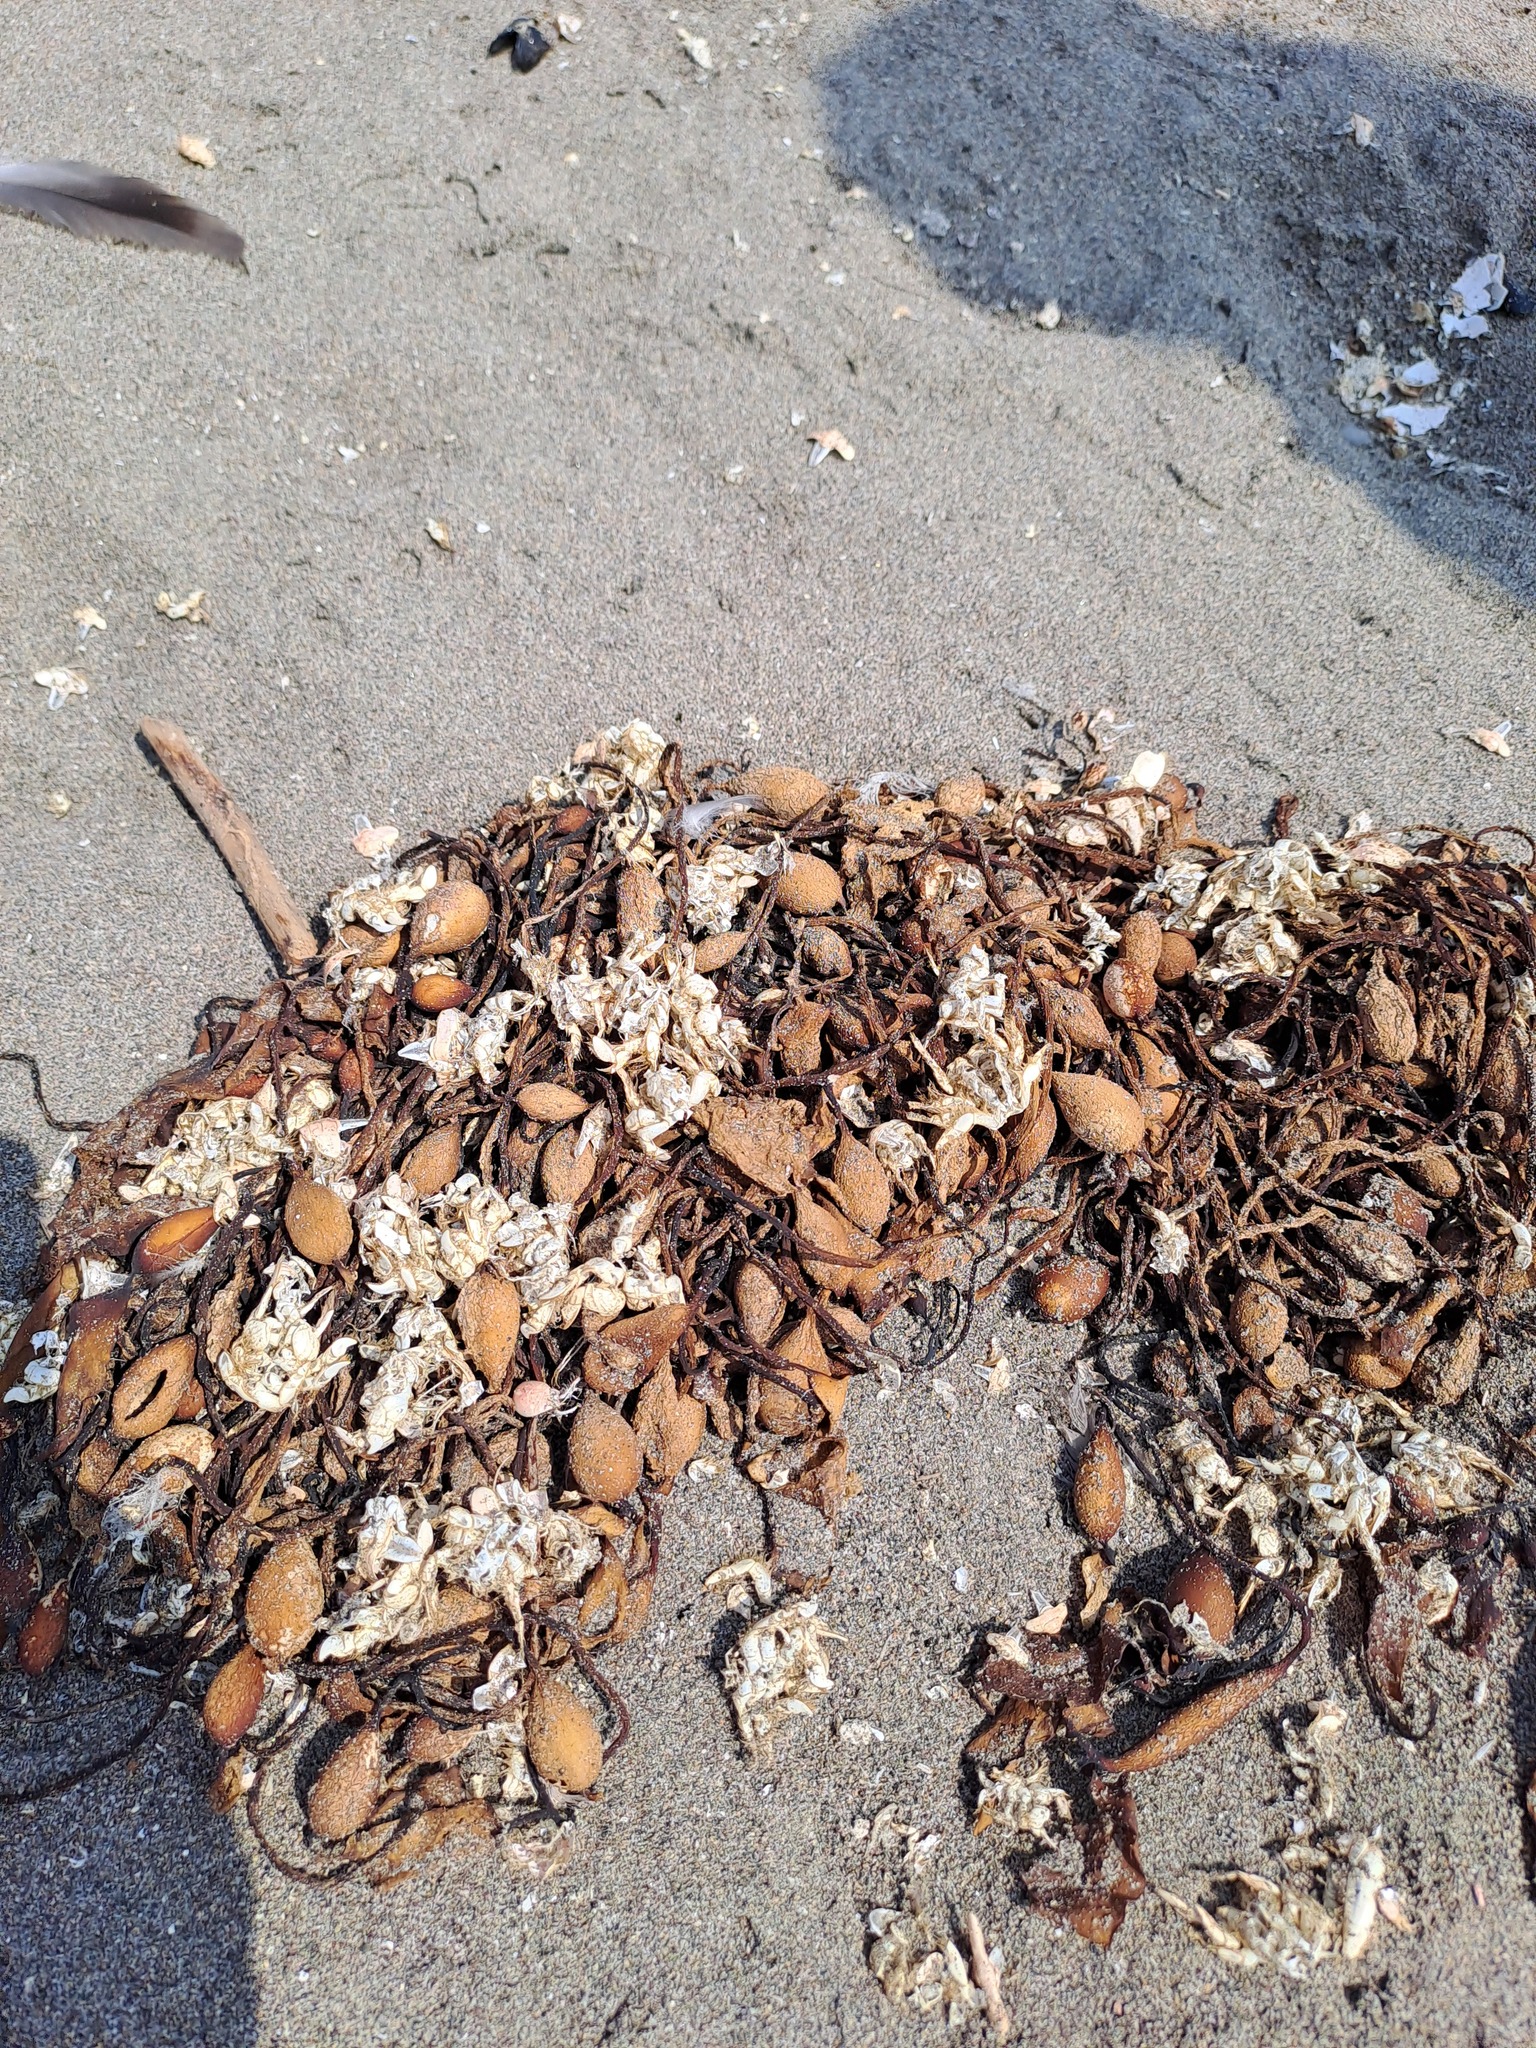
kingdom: Chromista
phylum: Ochrophyta
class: Phaeophyceae
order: Laminariales
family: Laminariaceae
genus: Macrocystis
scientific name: Macrocystis pyrifera
